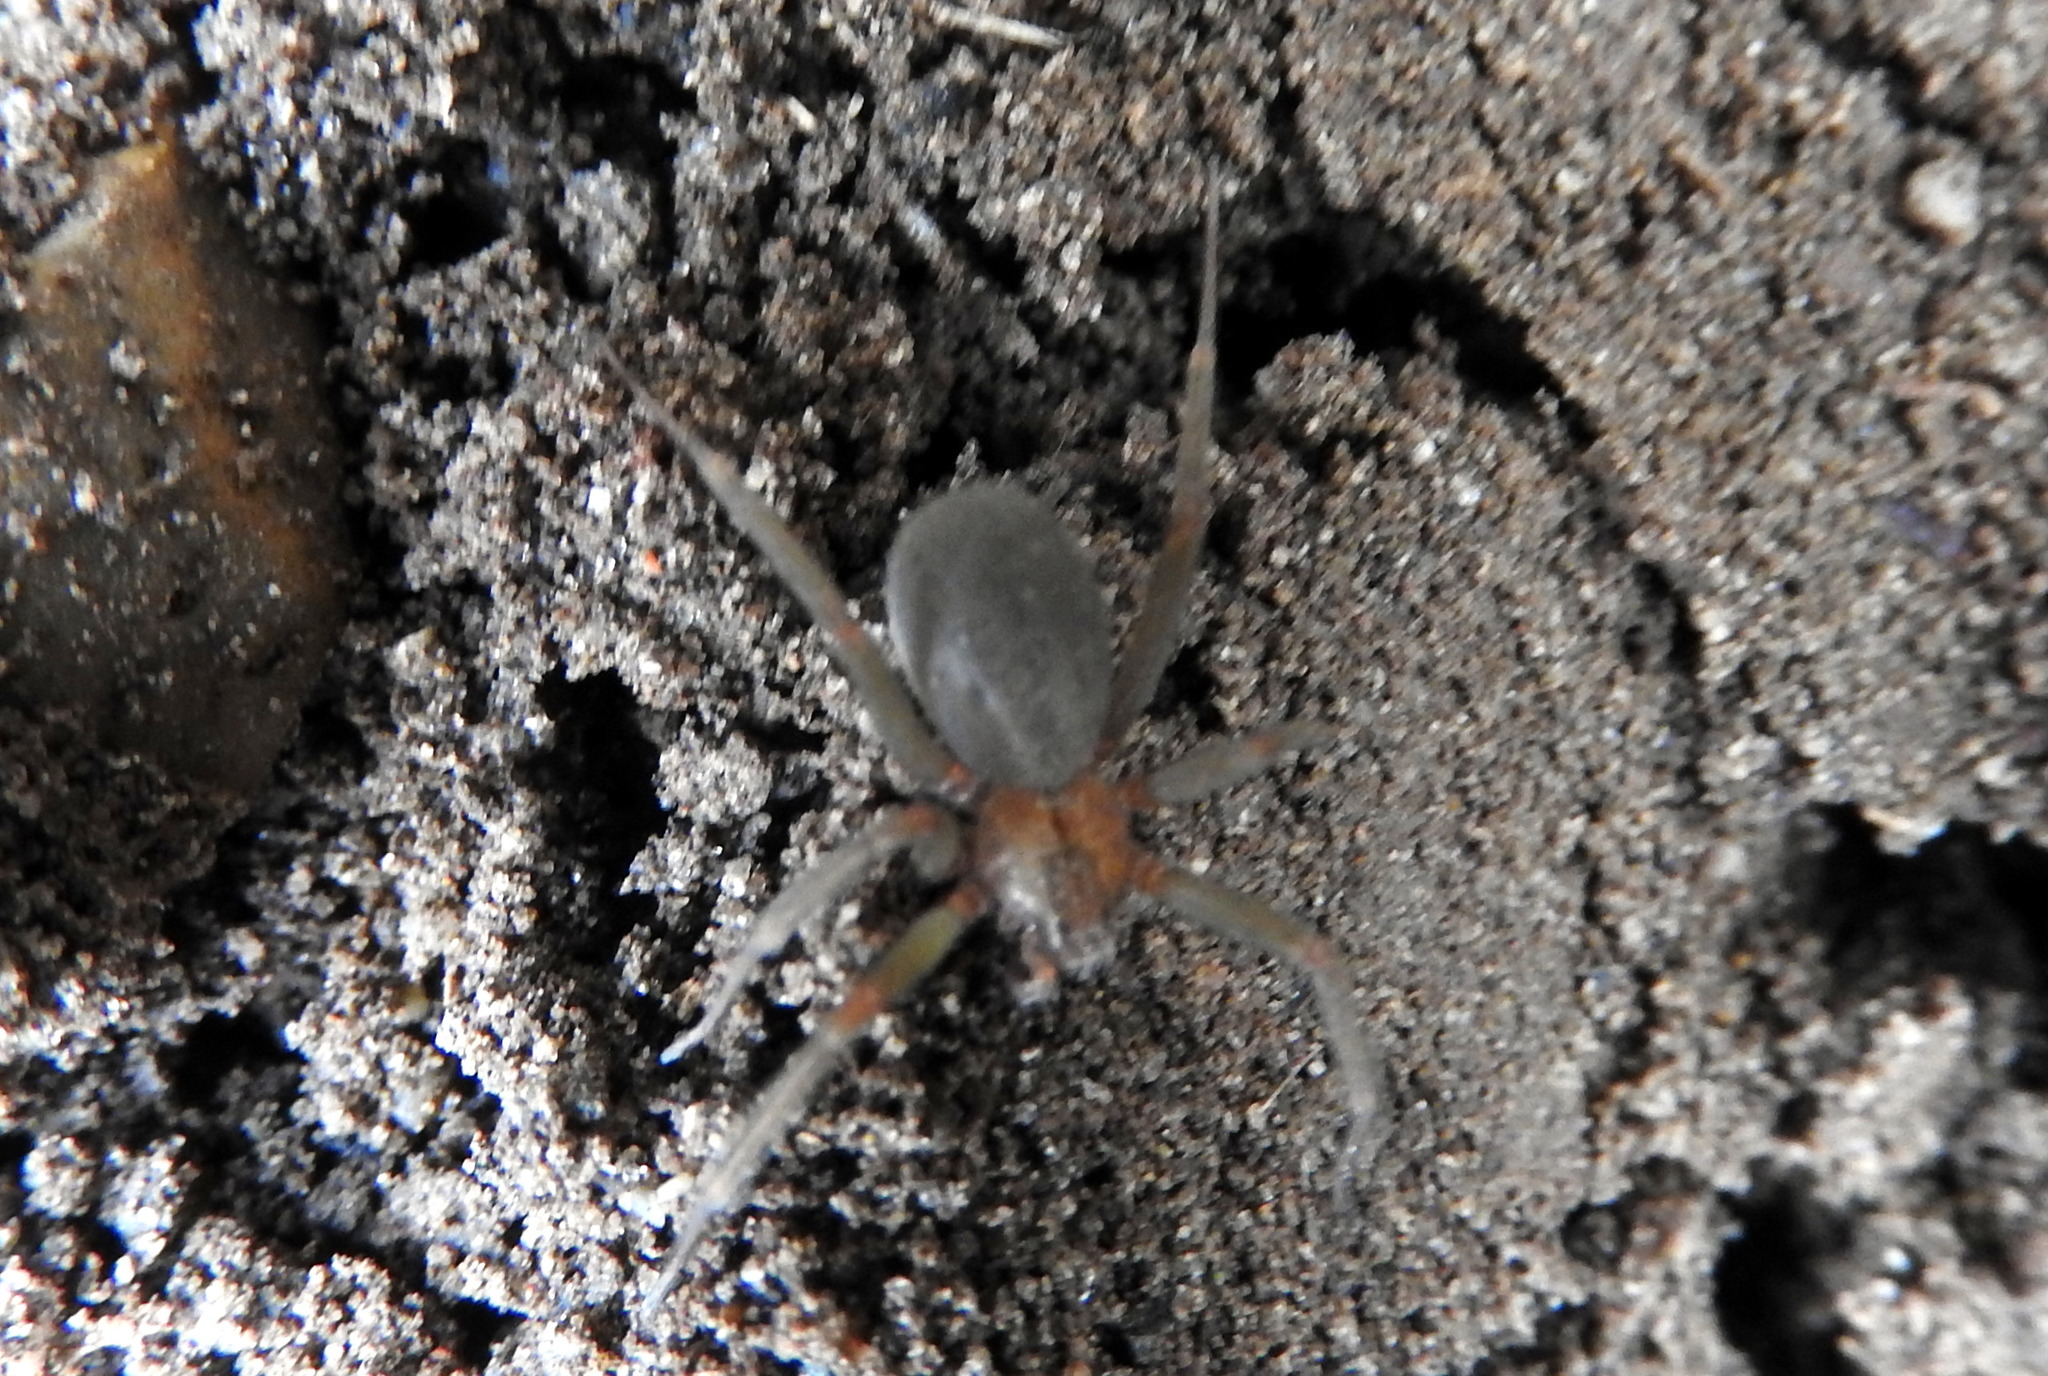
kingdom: Animalia
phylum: Arthropoda
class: Arachnida
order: Araneae
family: Sicariidae
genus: Loxosceles
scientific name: Loxosceles laeta
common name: Chilean recluse spider
